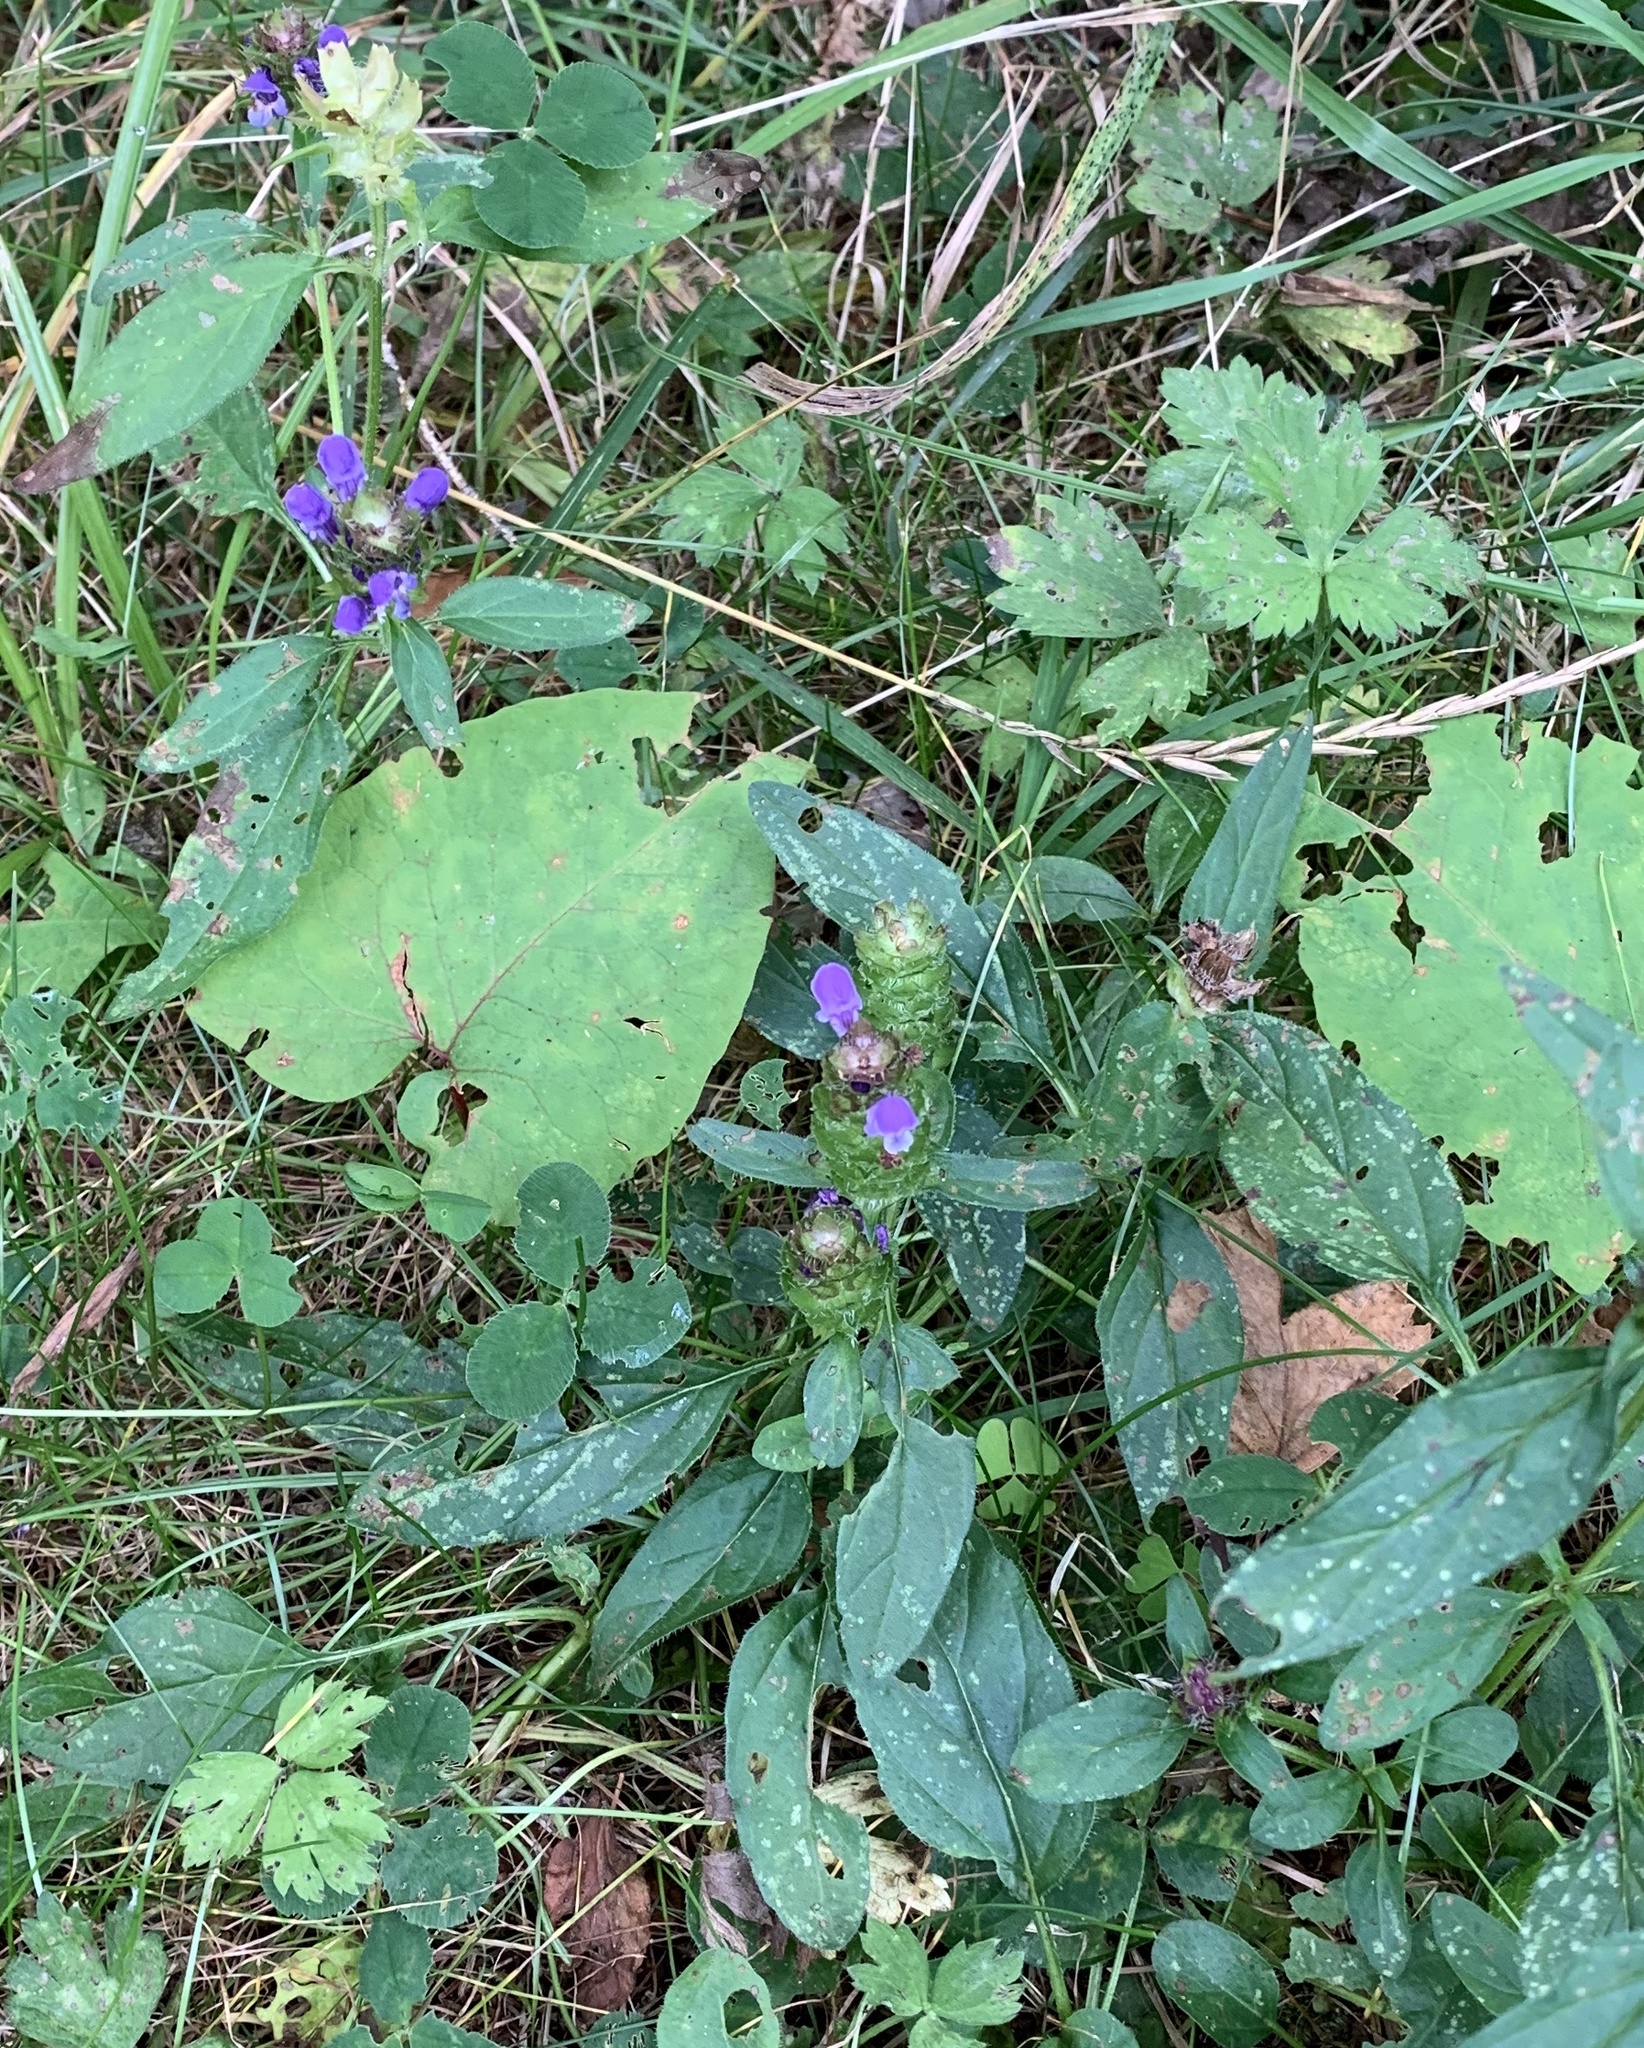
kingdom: Plantae
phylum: Tracheophyta
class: Magnoliopsida
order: Lamiales
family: Lamiaceae
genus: Prunella
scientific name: Prunella vulgaris
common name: Heal-all
